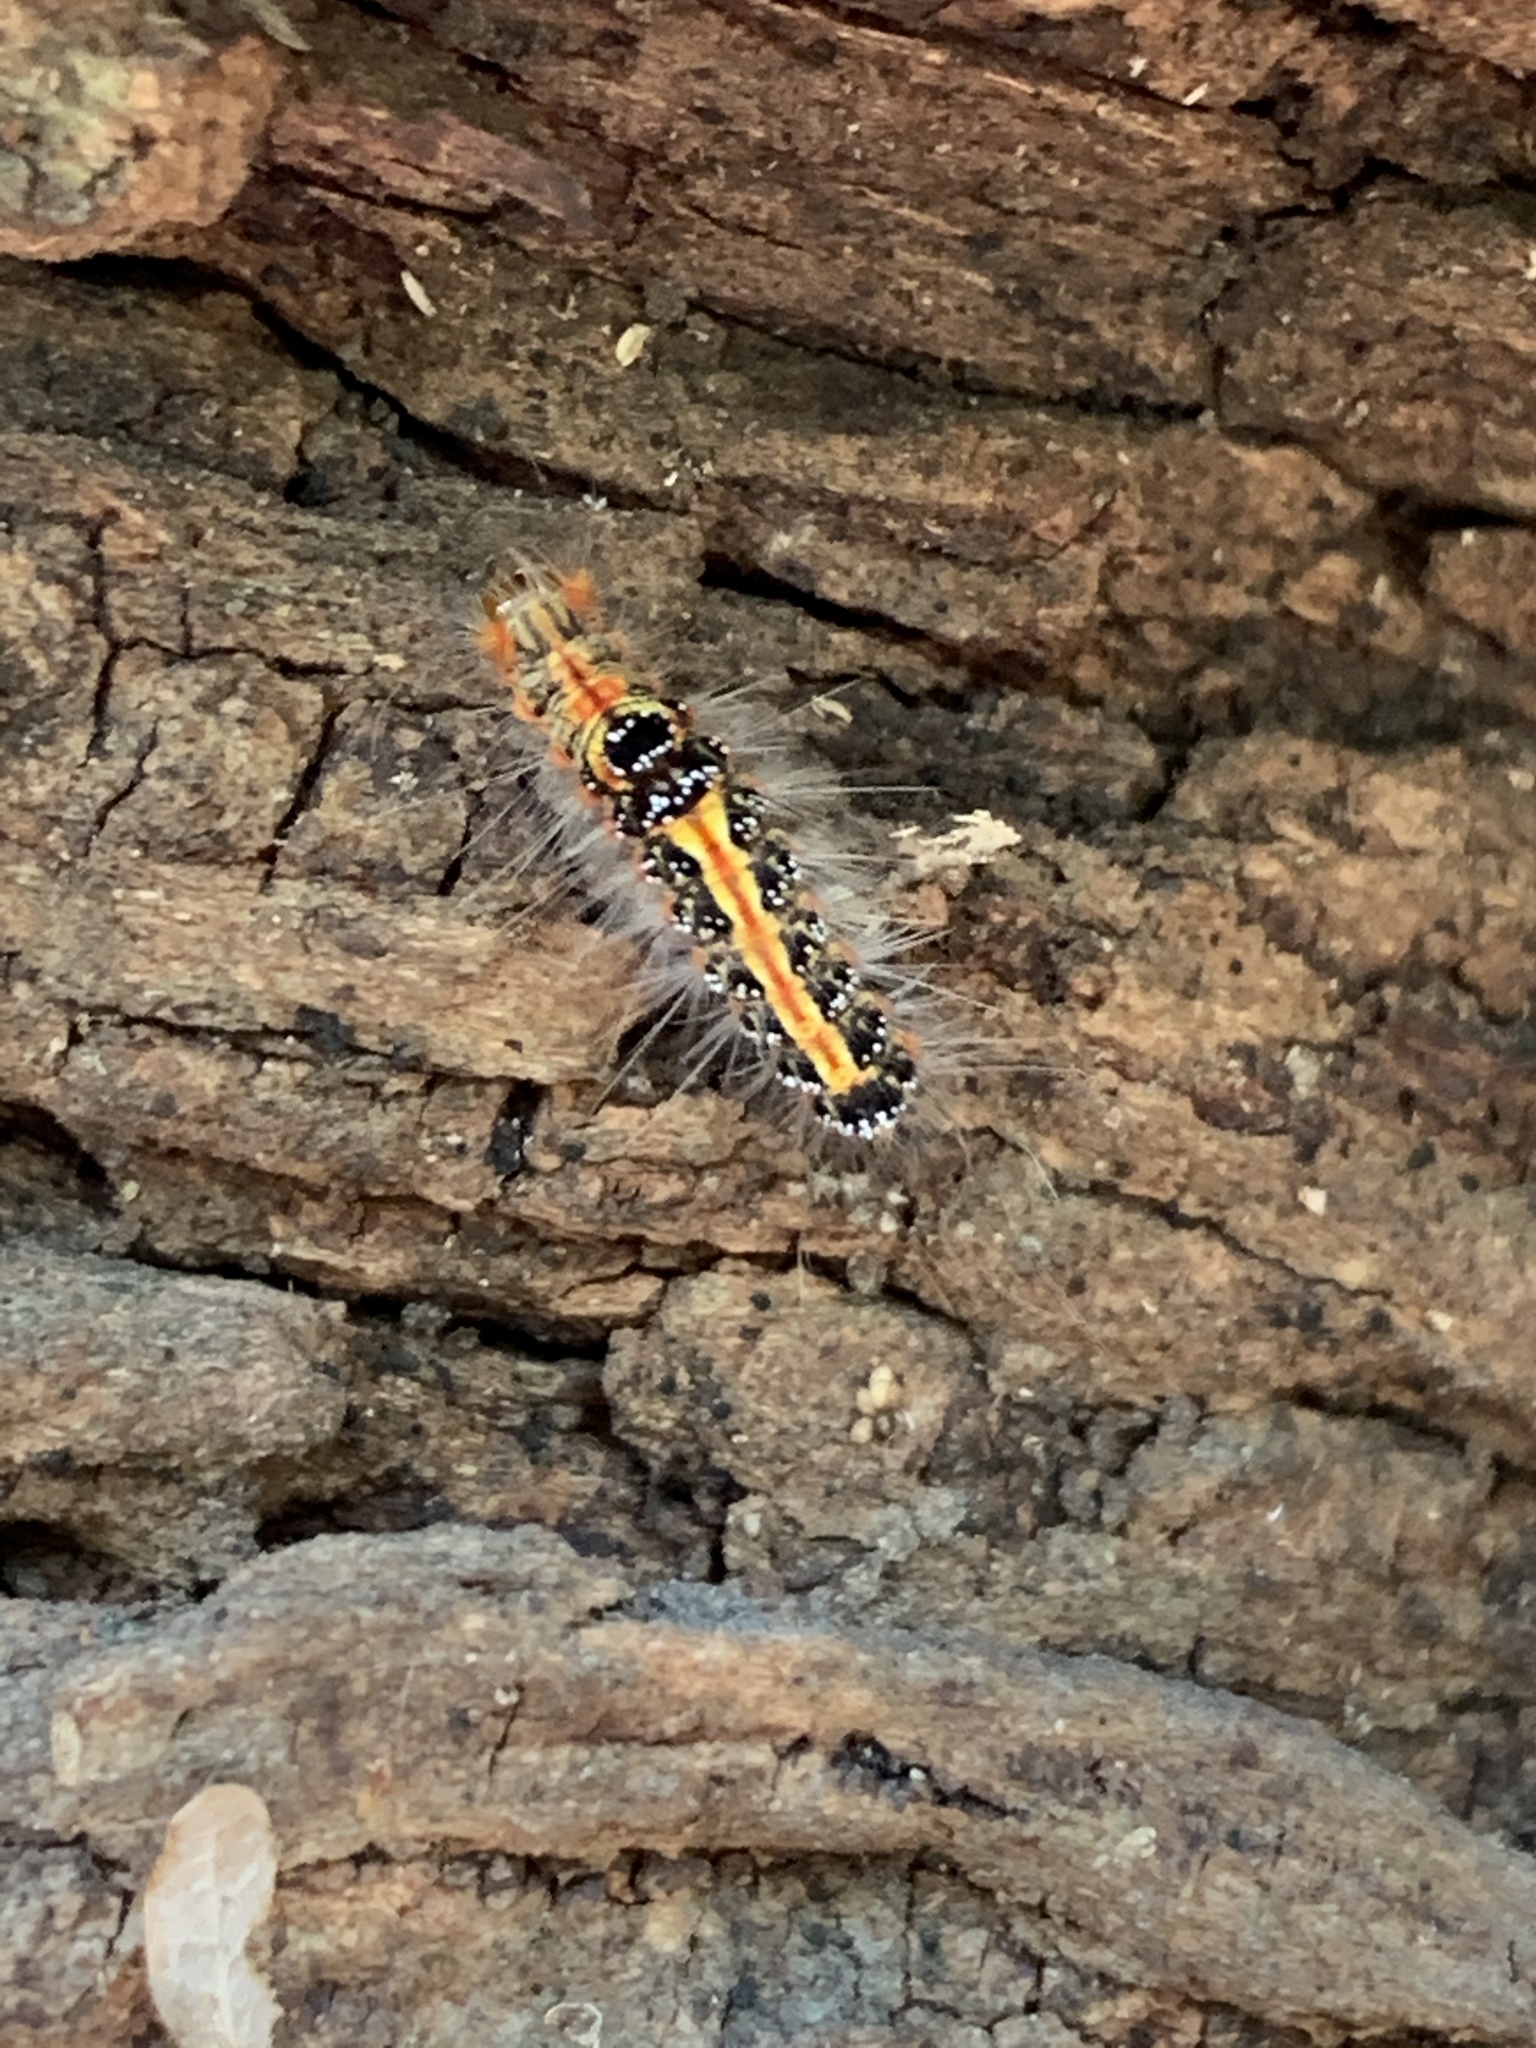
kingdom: Animalia
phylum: Arthropoda
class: Insecta
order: Lepidoptera
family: Erebidae
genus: Euproctis
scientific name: Euproctis taiwana
